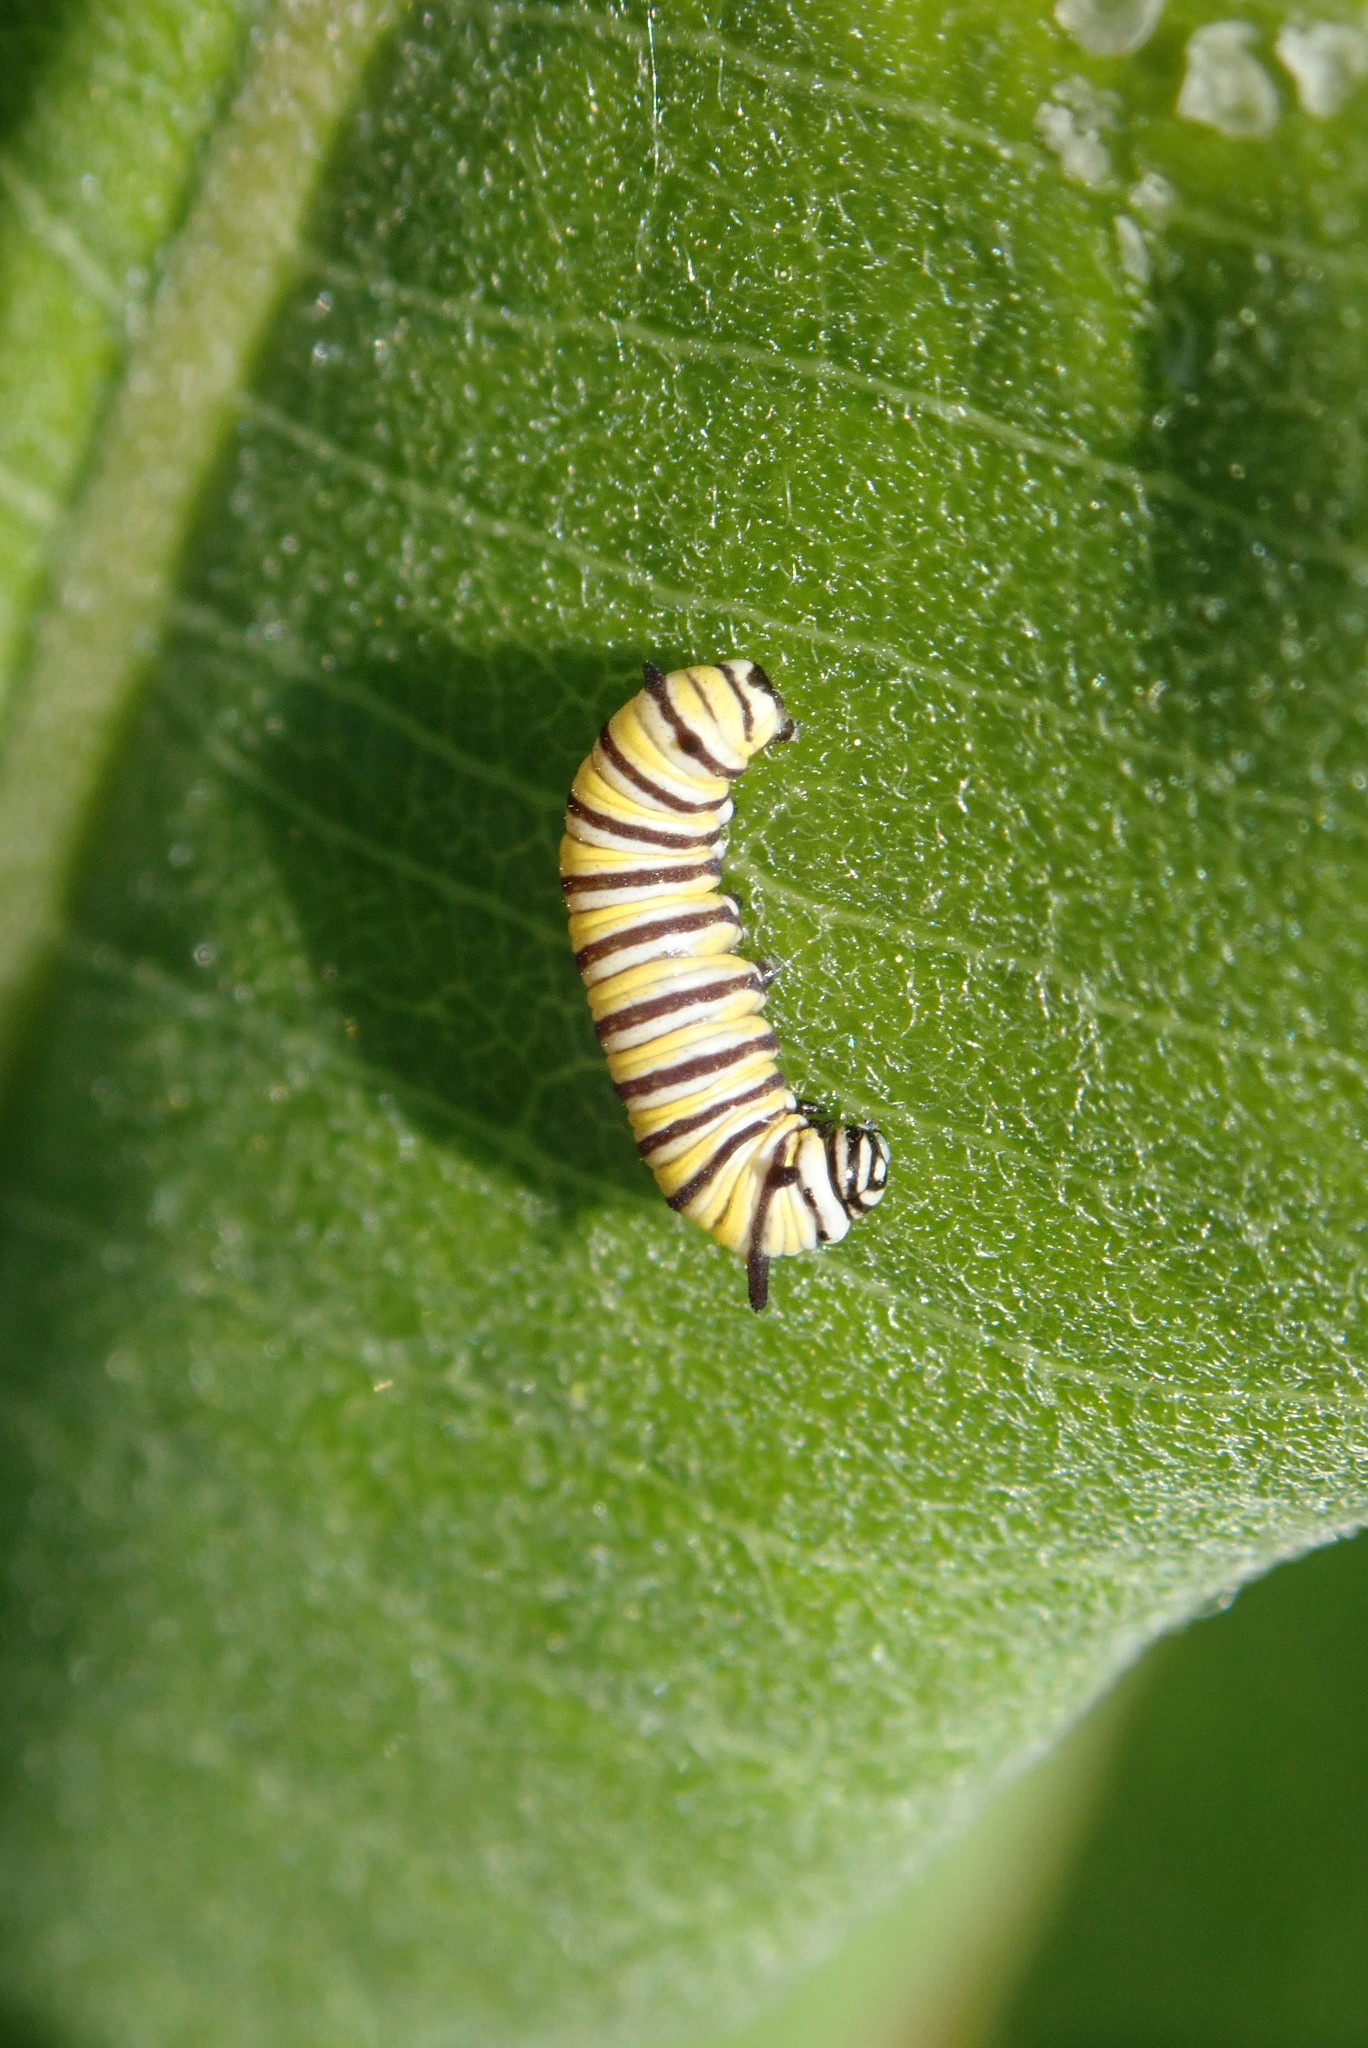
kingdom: Animalia
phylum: Arthropoda
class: Insecta
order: Lepidoptera
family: Nymphalidae
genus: Danaus
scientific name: Danaus plexippus
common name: Monarch
